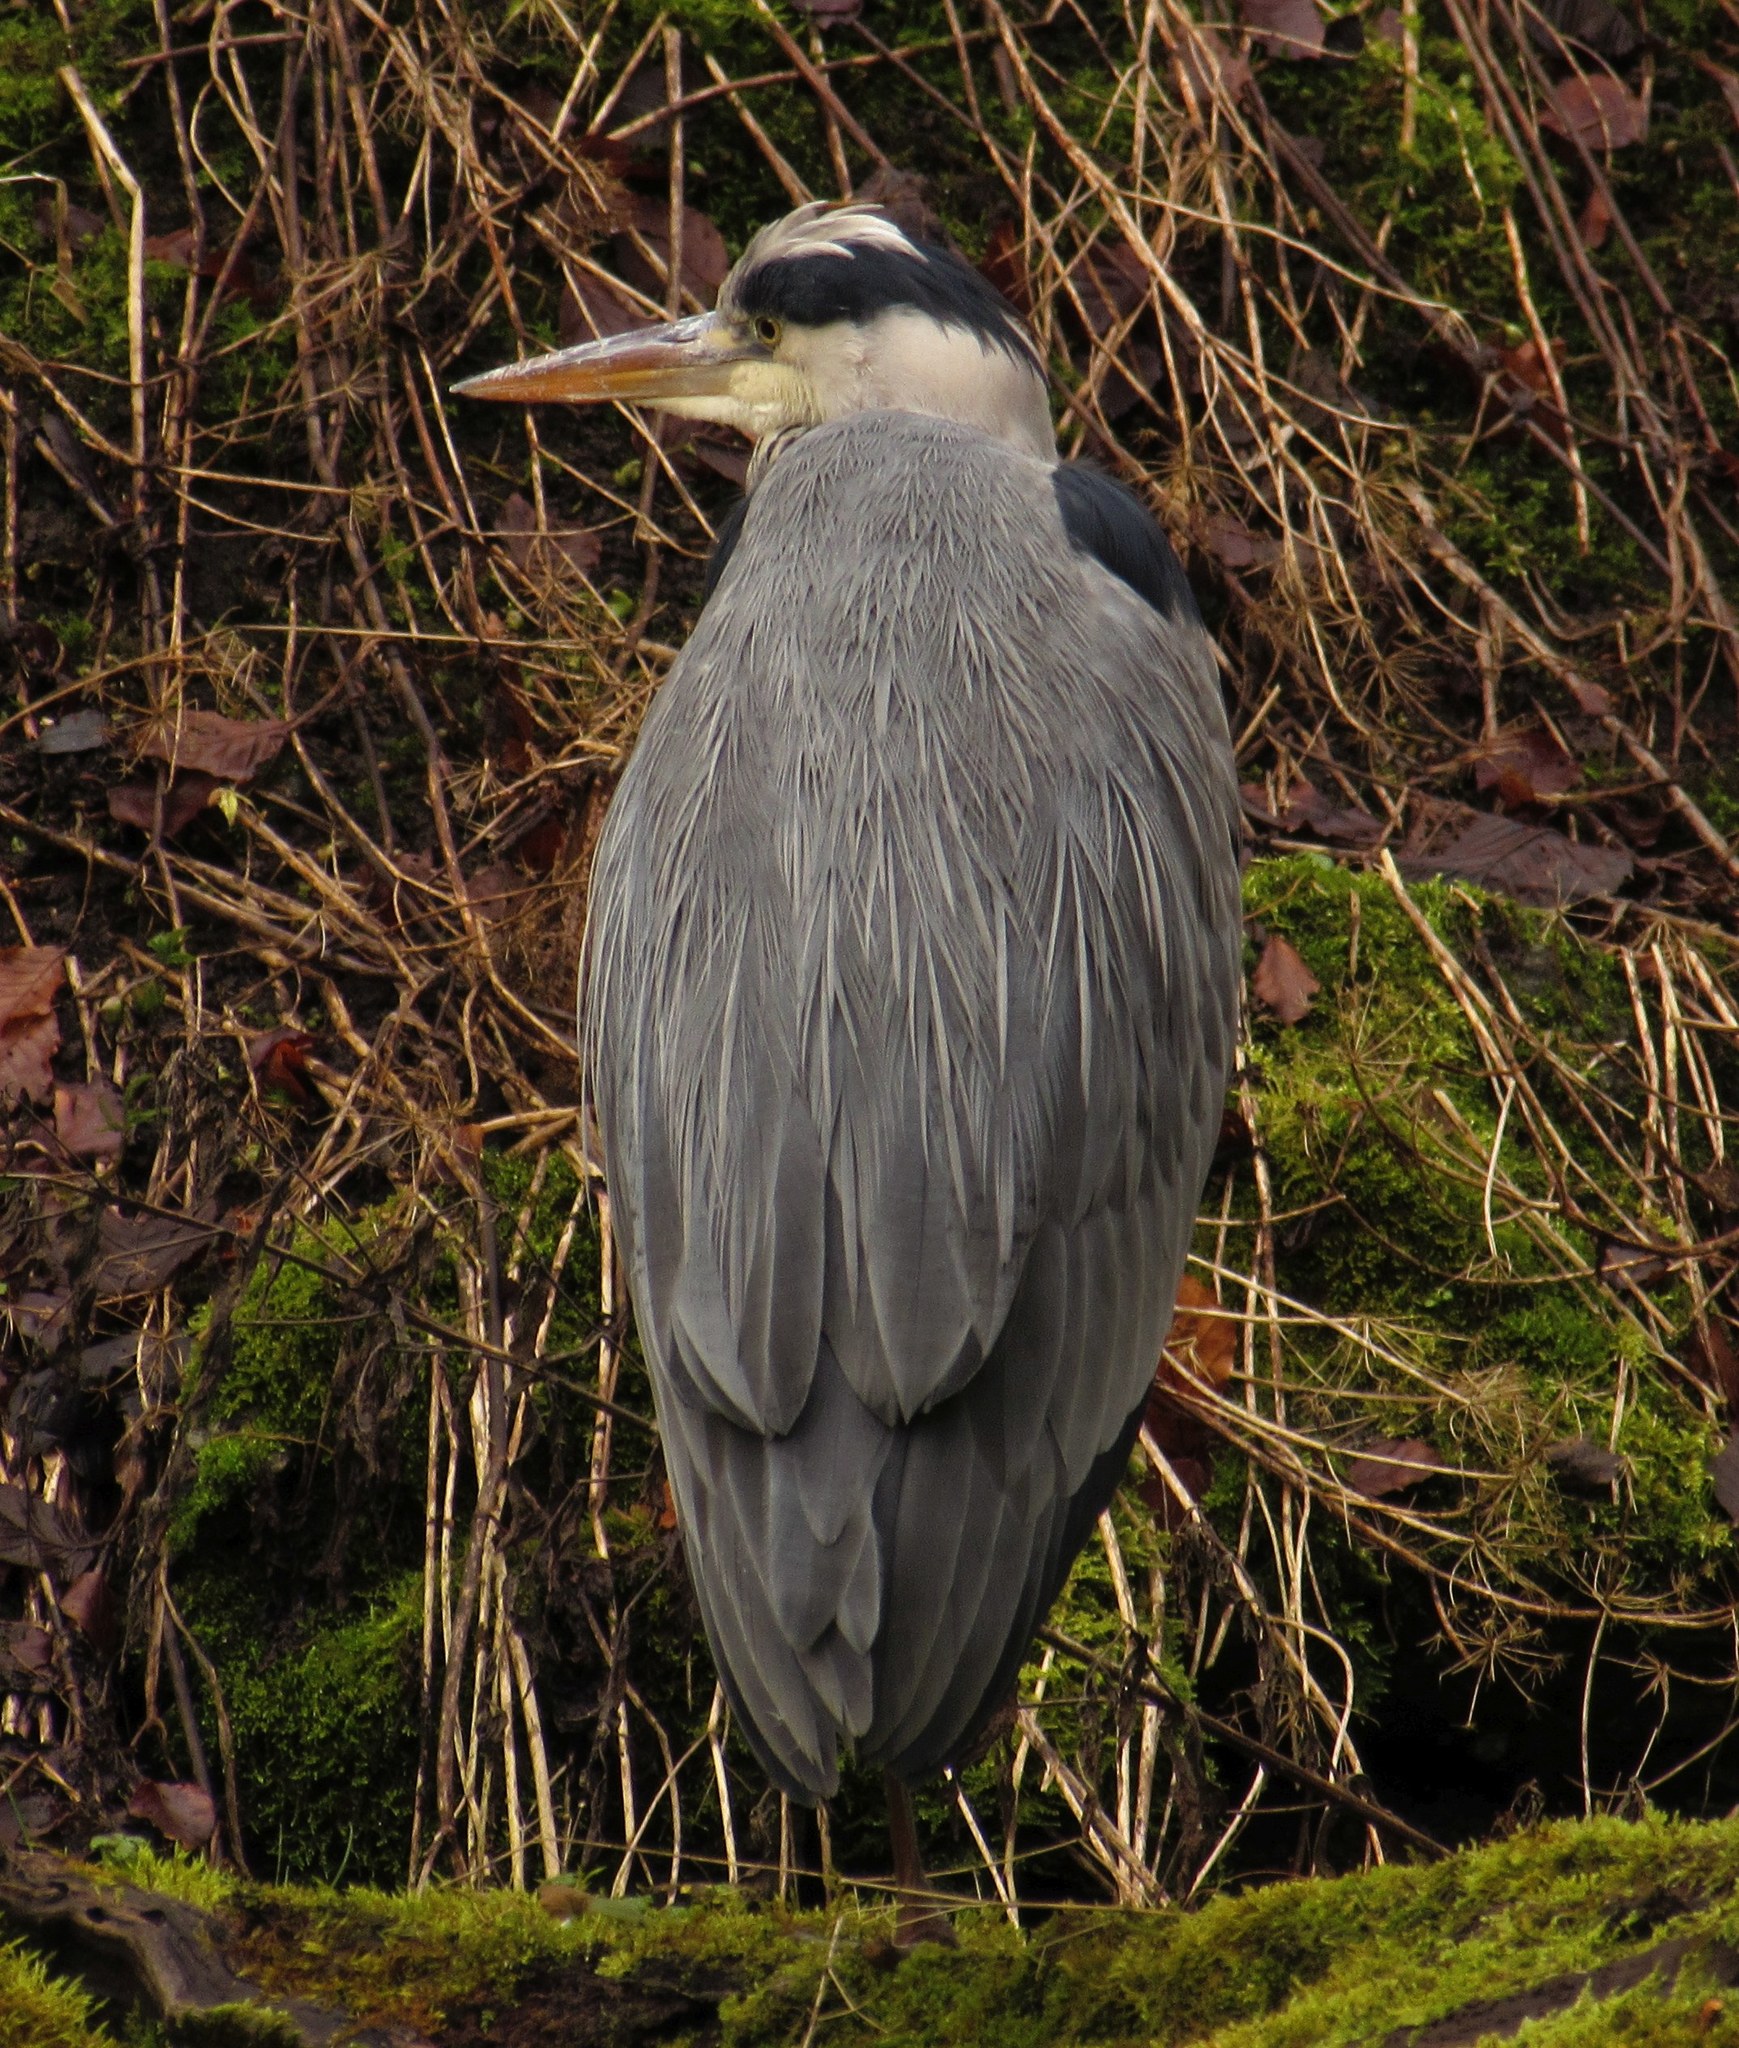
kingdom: Animalia
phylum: Chordata
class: Aves
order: Pelecaniformes
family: Ardeidae
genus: Ardea
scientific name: Ardea cinerea
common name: Grey heron
